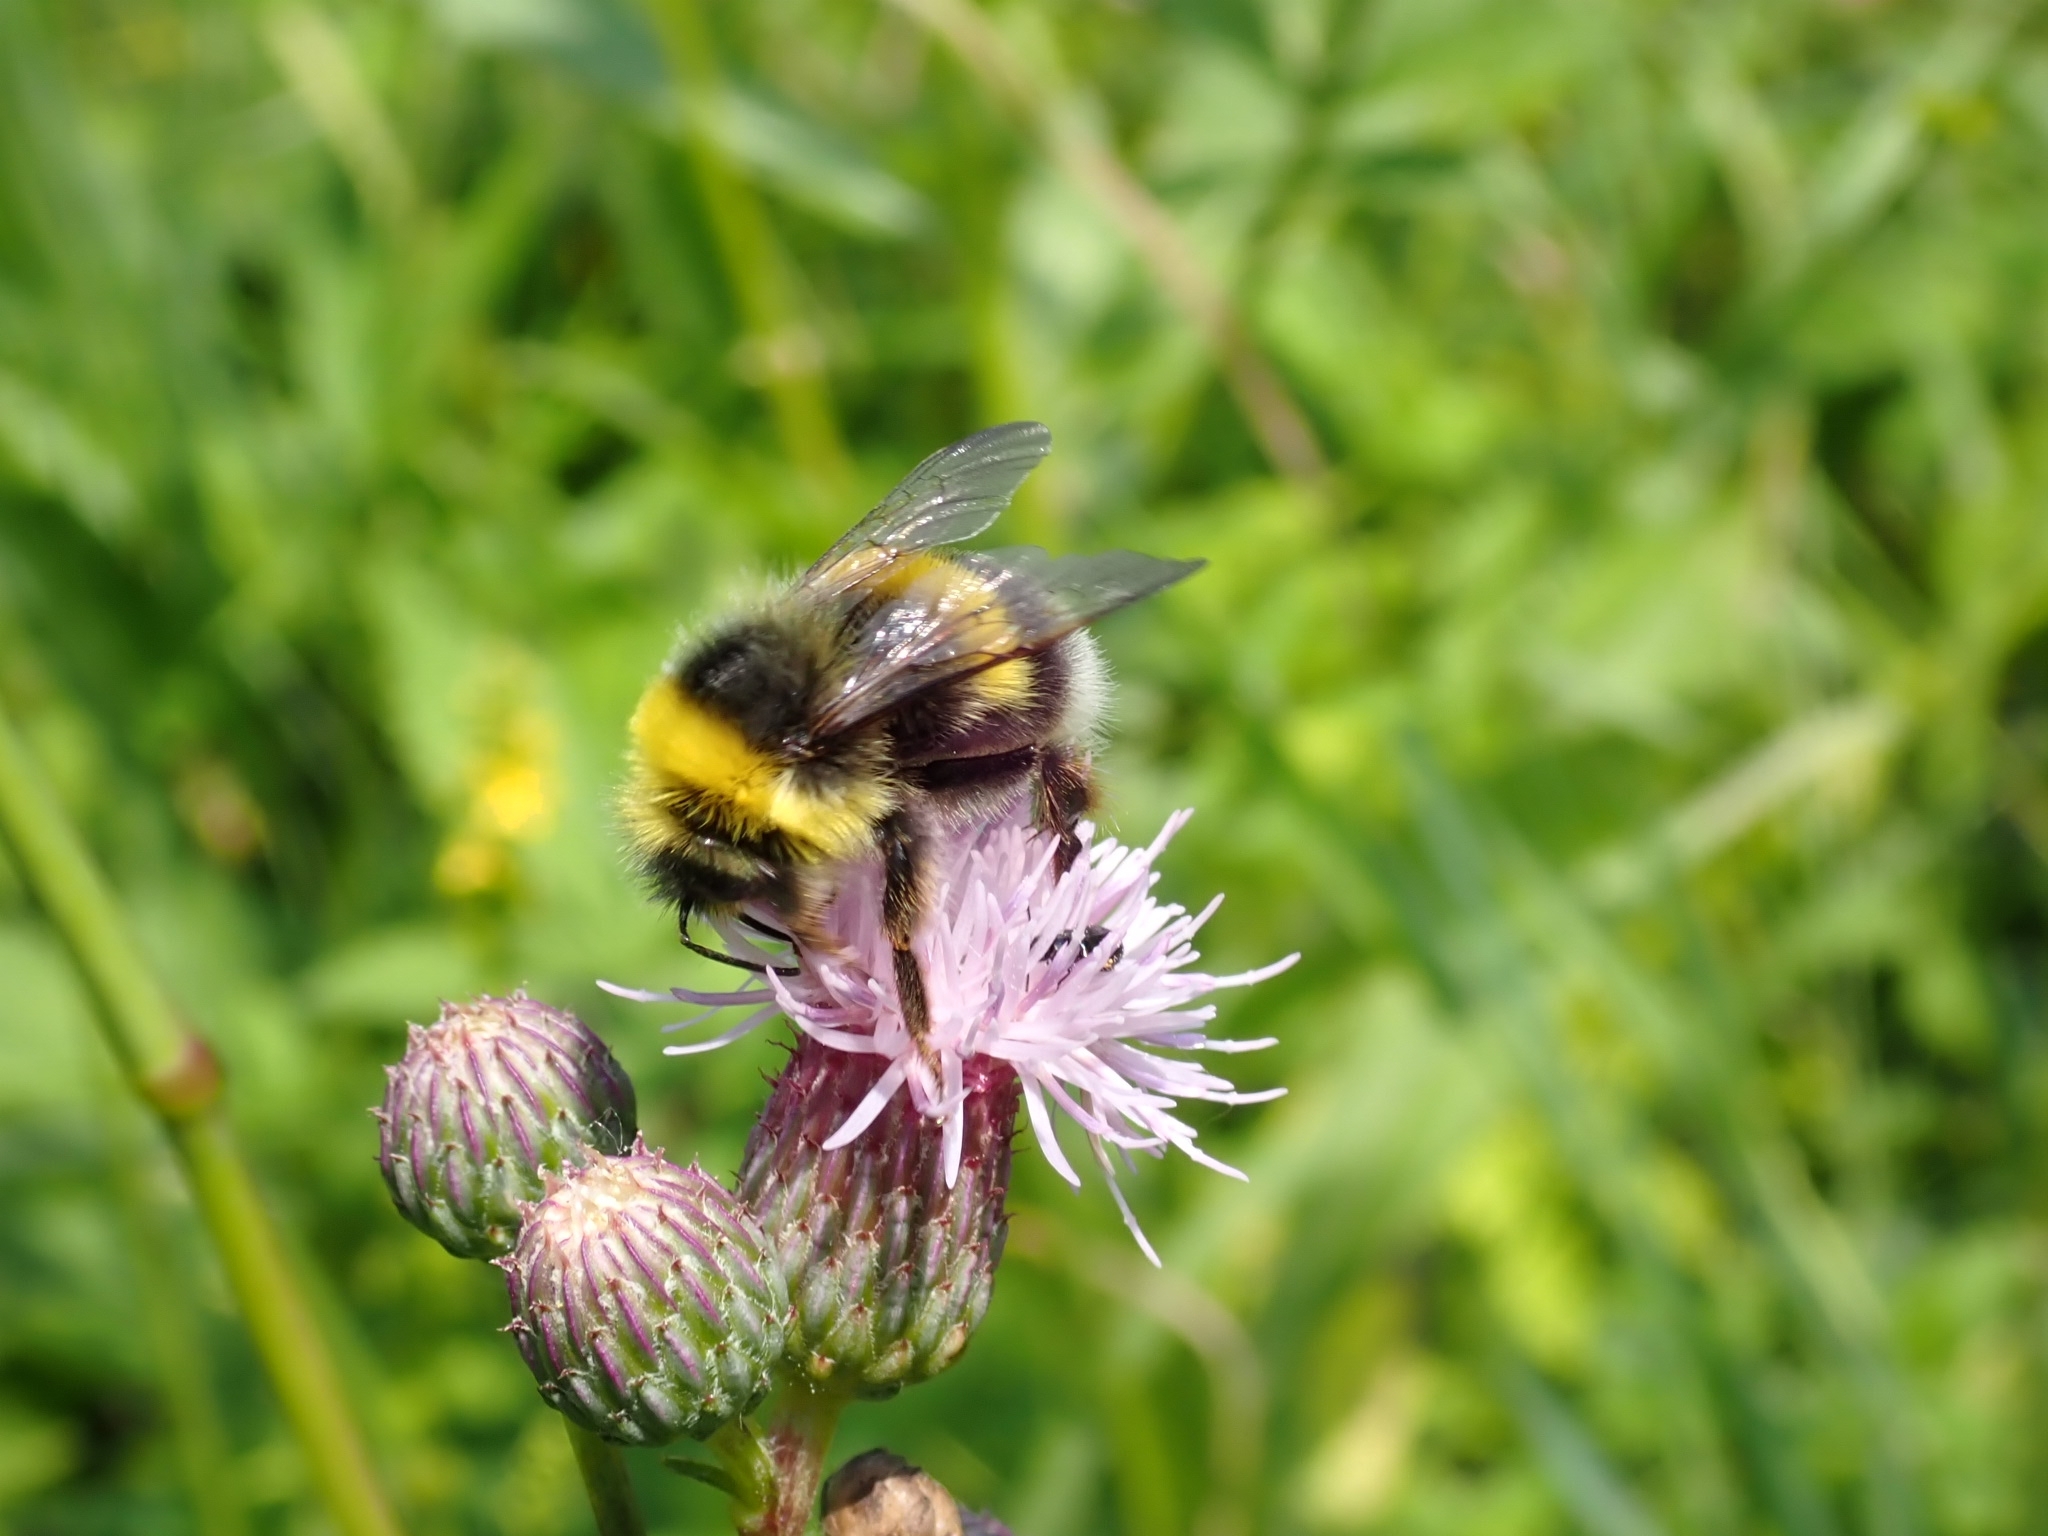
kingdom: Animalia
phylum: Arthropoda
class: Insecta
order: Hymenoptera
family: Apidae
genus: Bombus
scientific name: Bombus lucorum
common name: White-tailed bumblebee
